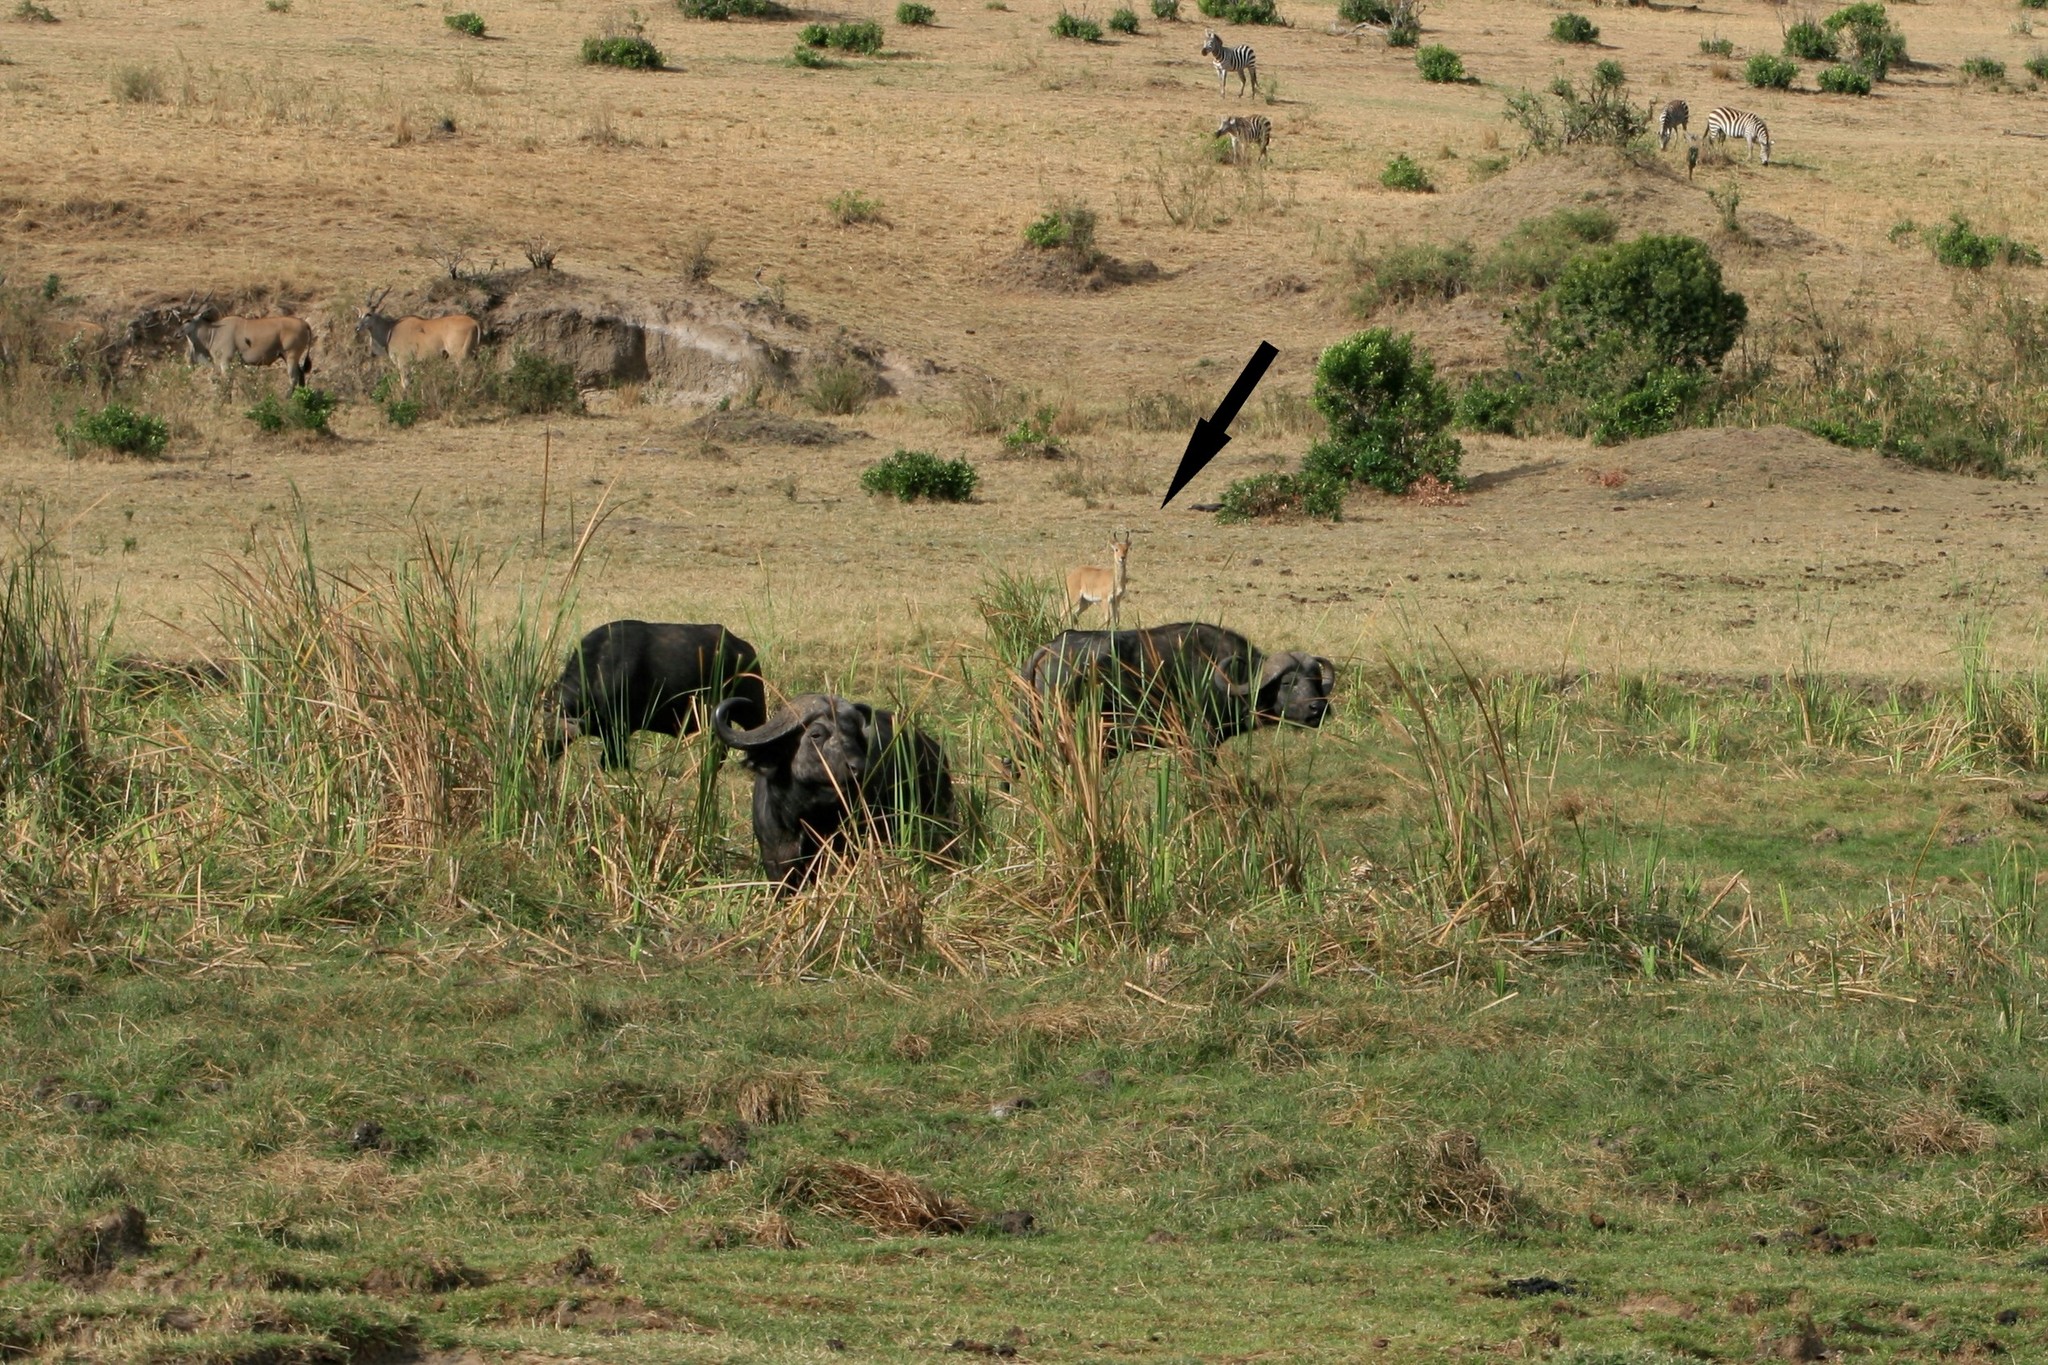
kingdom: Animalia
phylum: Chordata
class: Mammalia
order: Artiodactyla
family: Bovidae
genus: Redunca
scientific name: Redunca redunca
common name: Common reedbuck
